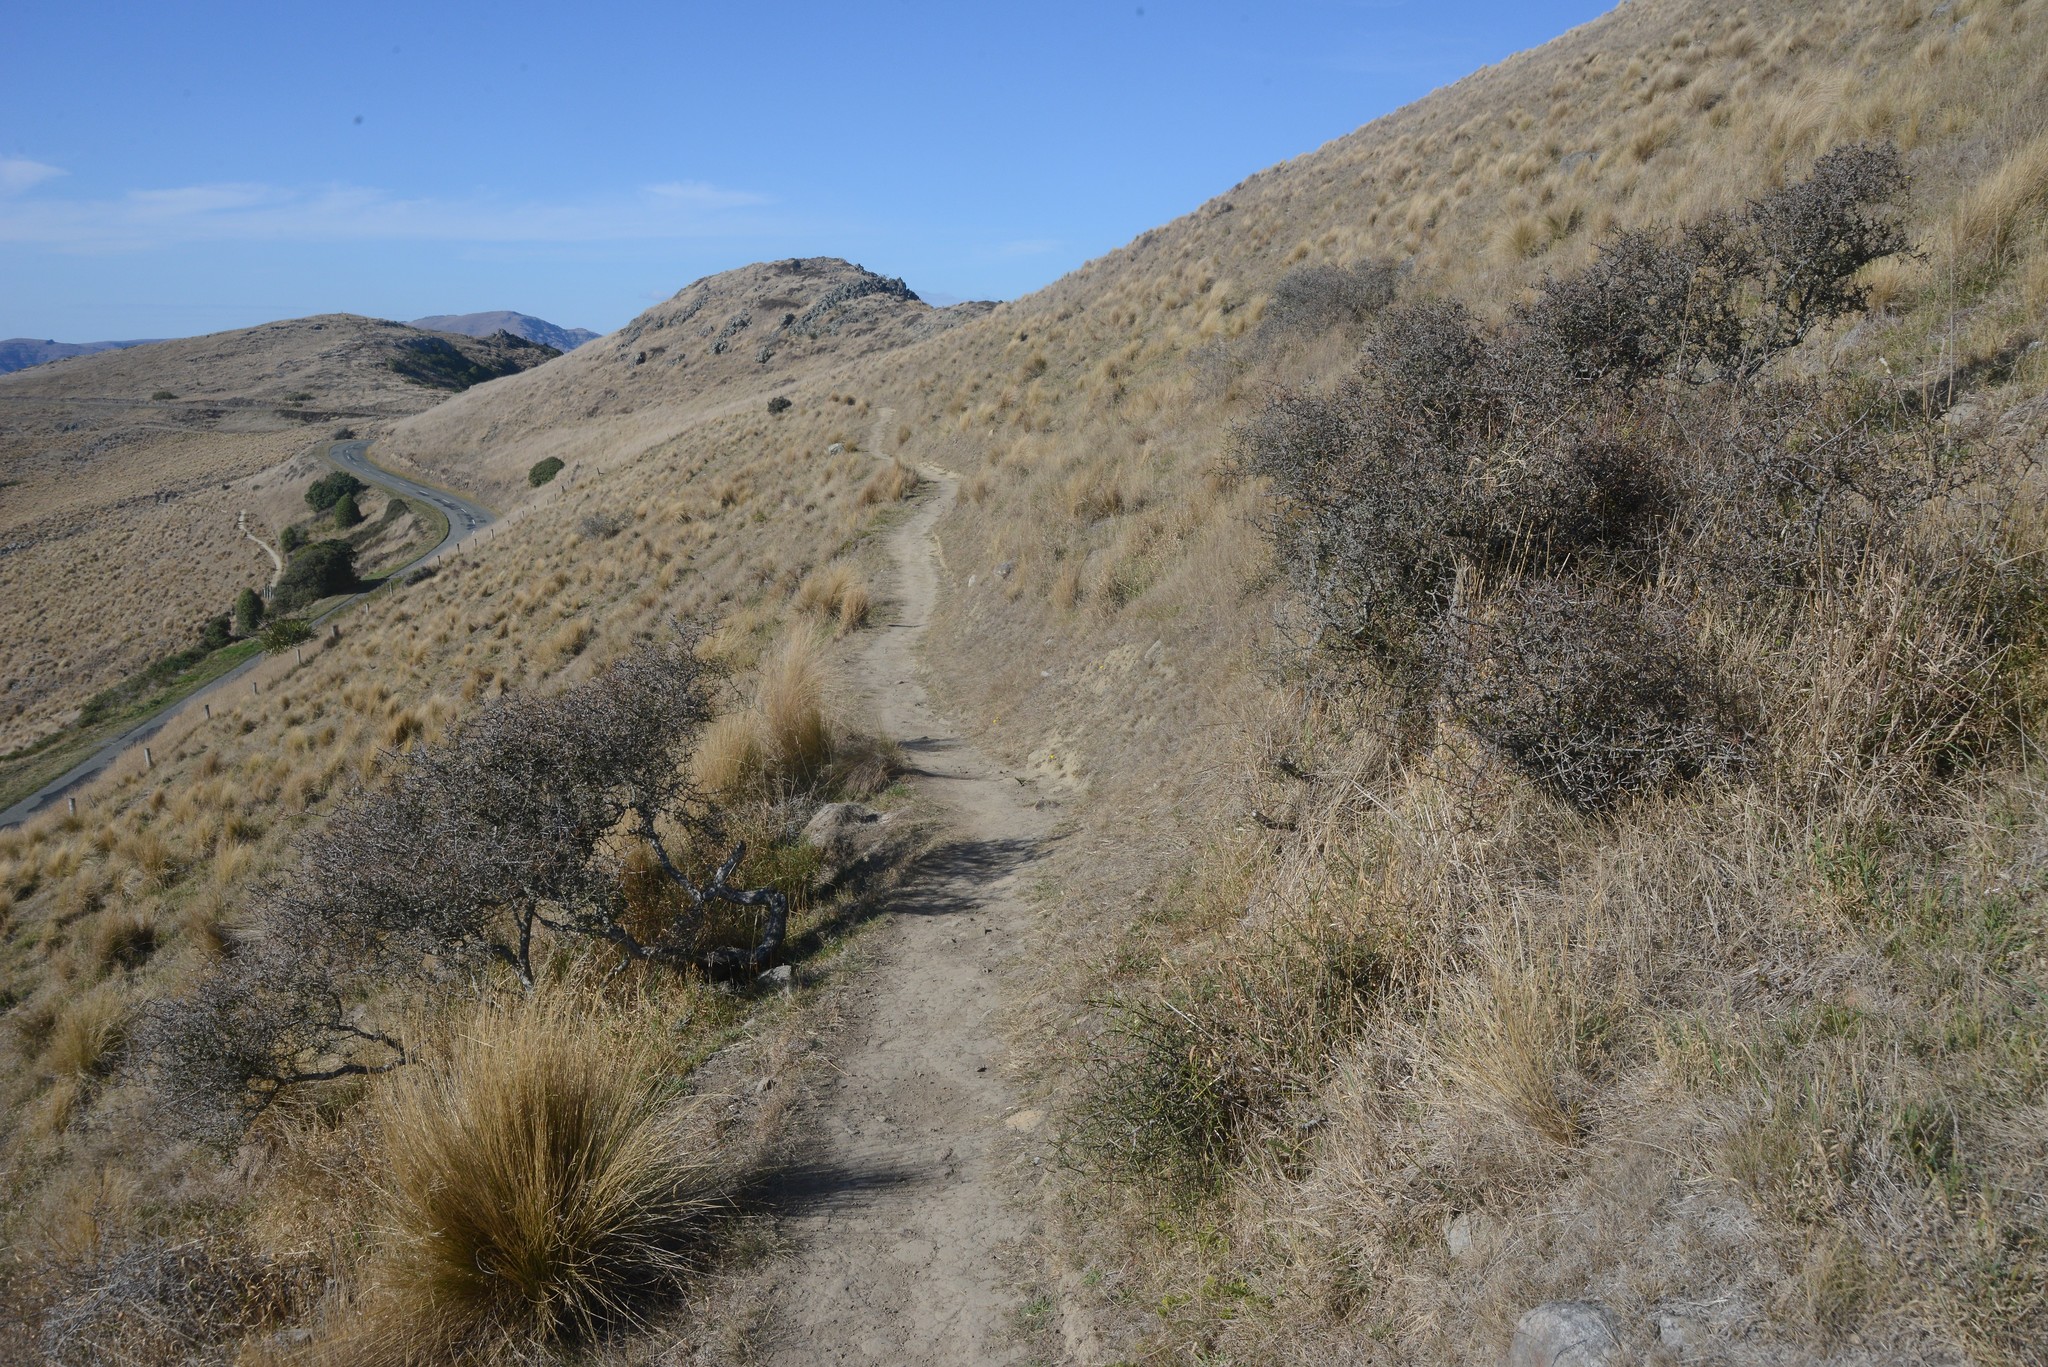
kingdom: Plantae
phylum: Tracheophyta
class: Magnoliopsida
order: Rosales
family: Rhamnaceae
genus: Discaria
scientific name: Discaria toumatou
